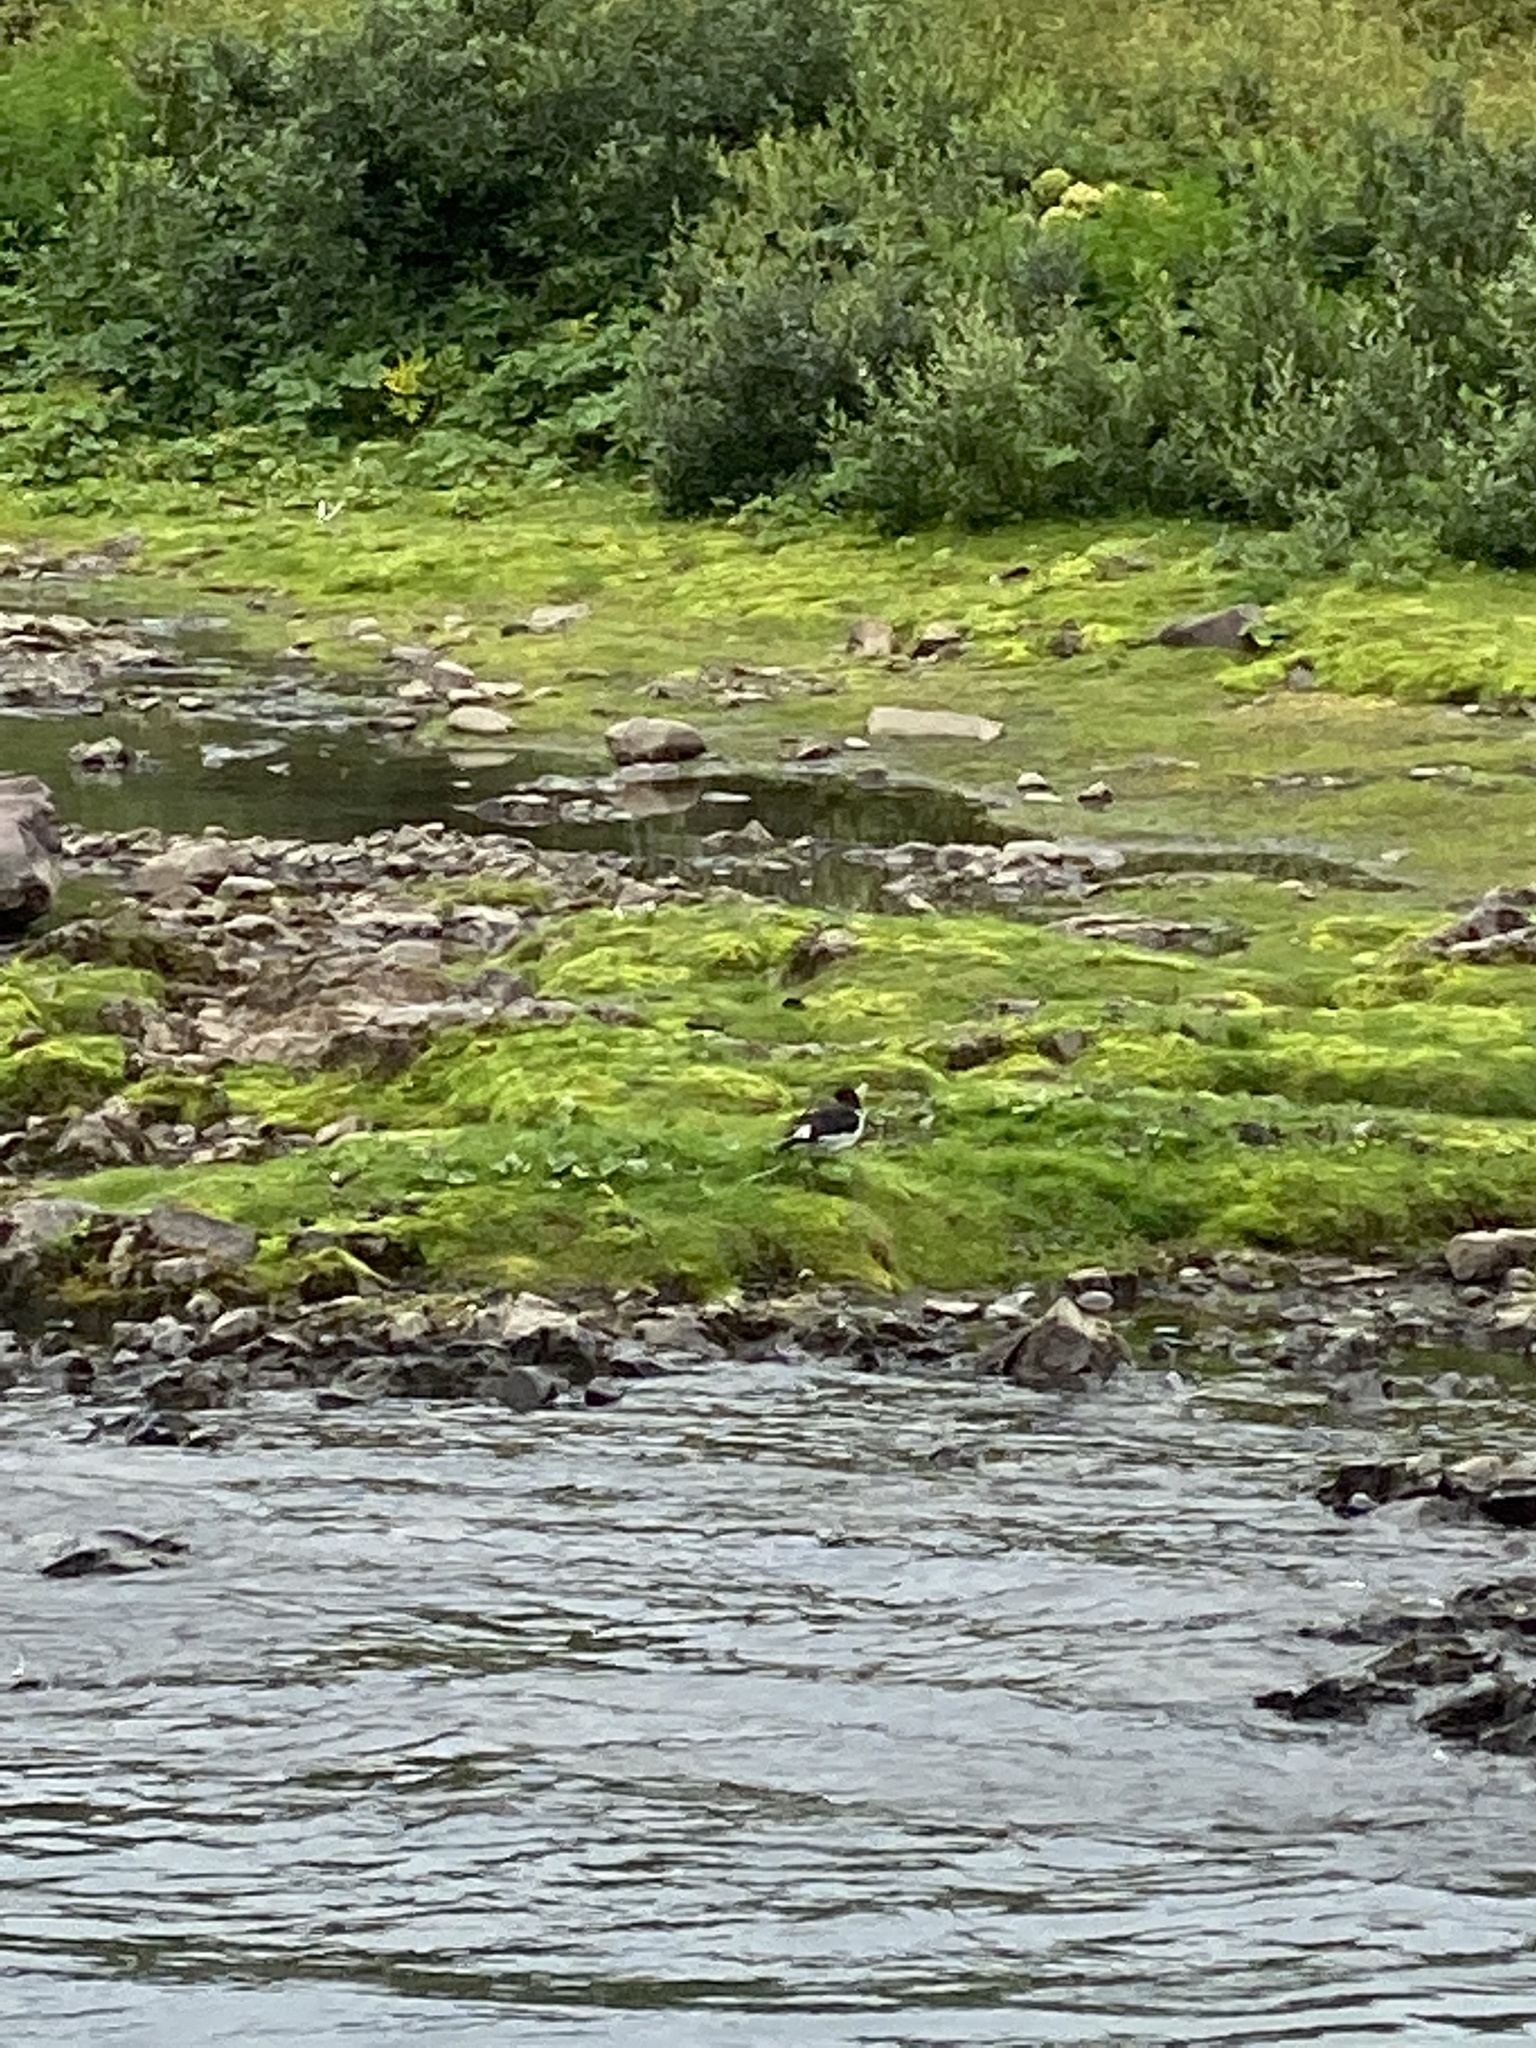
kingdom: Animalia
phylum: Chordata
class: Aves
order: Charadriiformes
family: Haematopodidae
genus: Haematopus
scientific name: Haematopus ostralegus
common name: Eurasian oystercatcher
